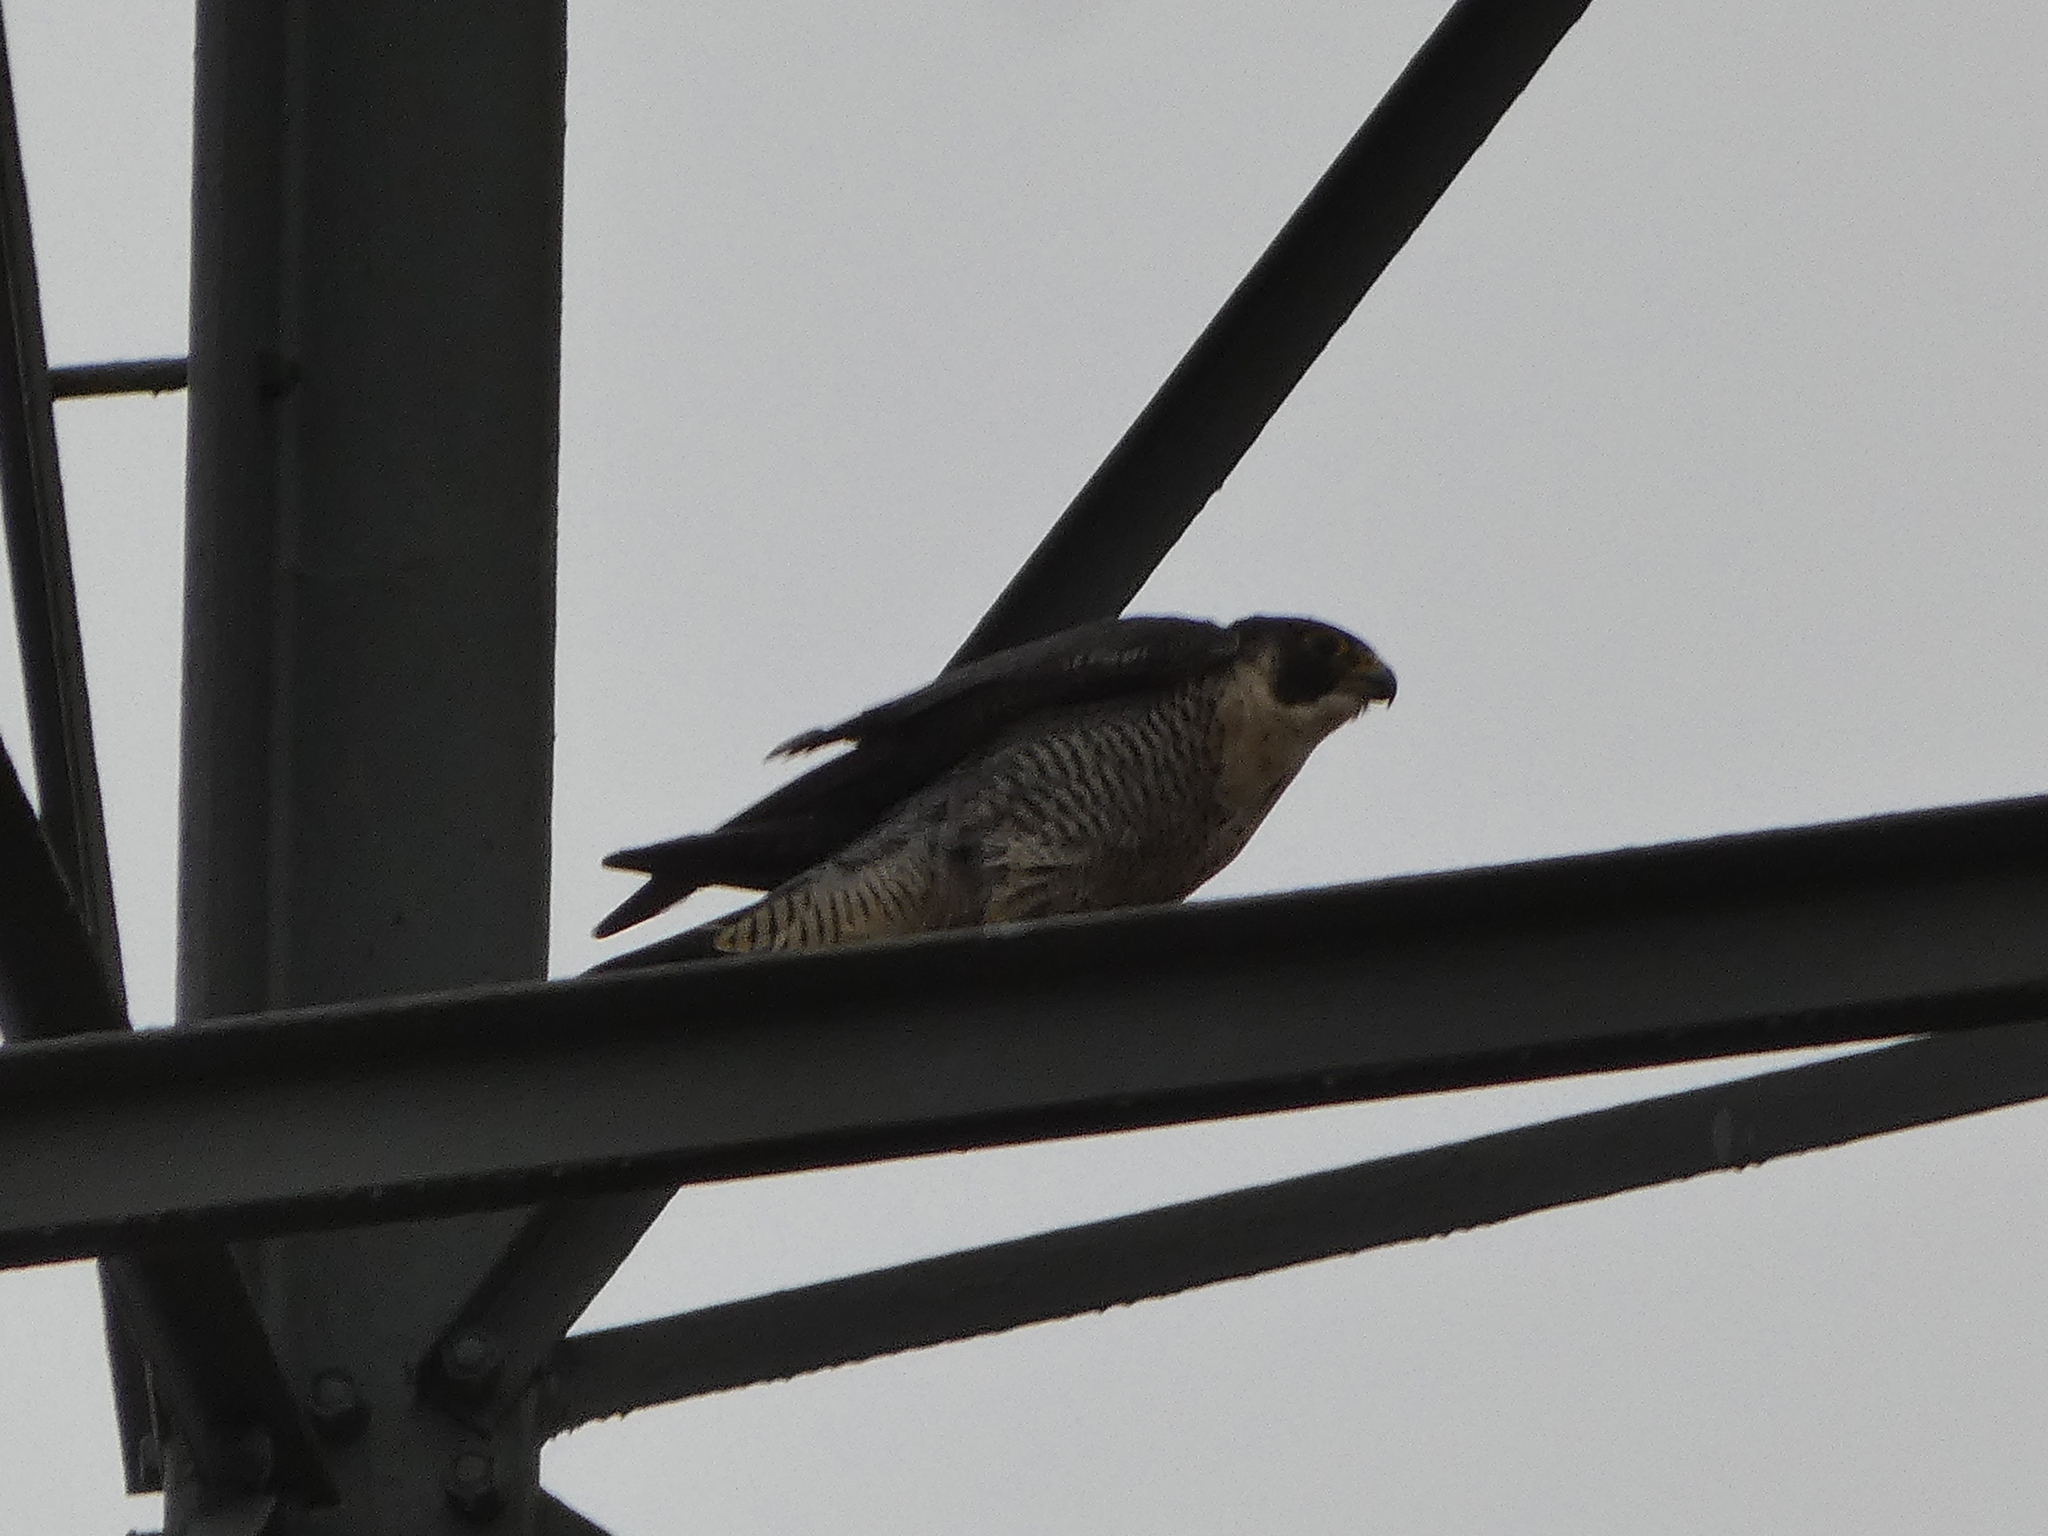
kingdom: Animalia
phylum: Chordata
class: Aves
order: Falconiformes
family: Falconidae
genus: Falco
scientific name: Falco peregrinus
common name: Peregrine falcon
